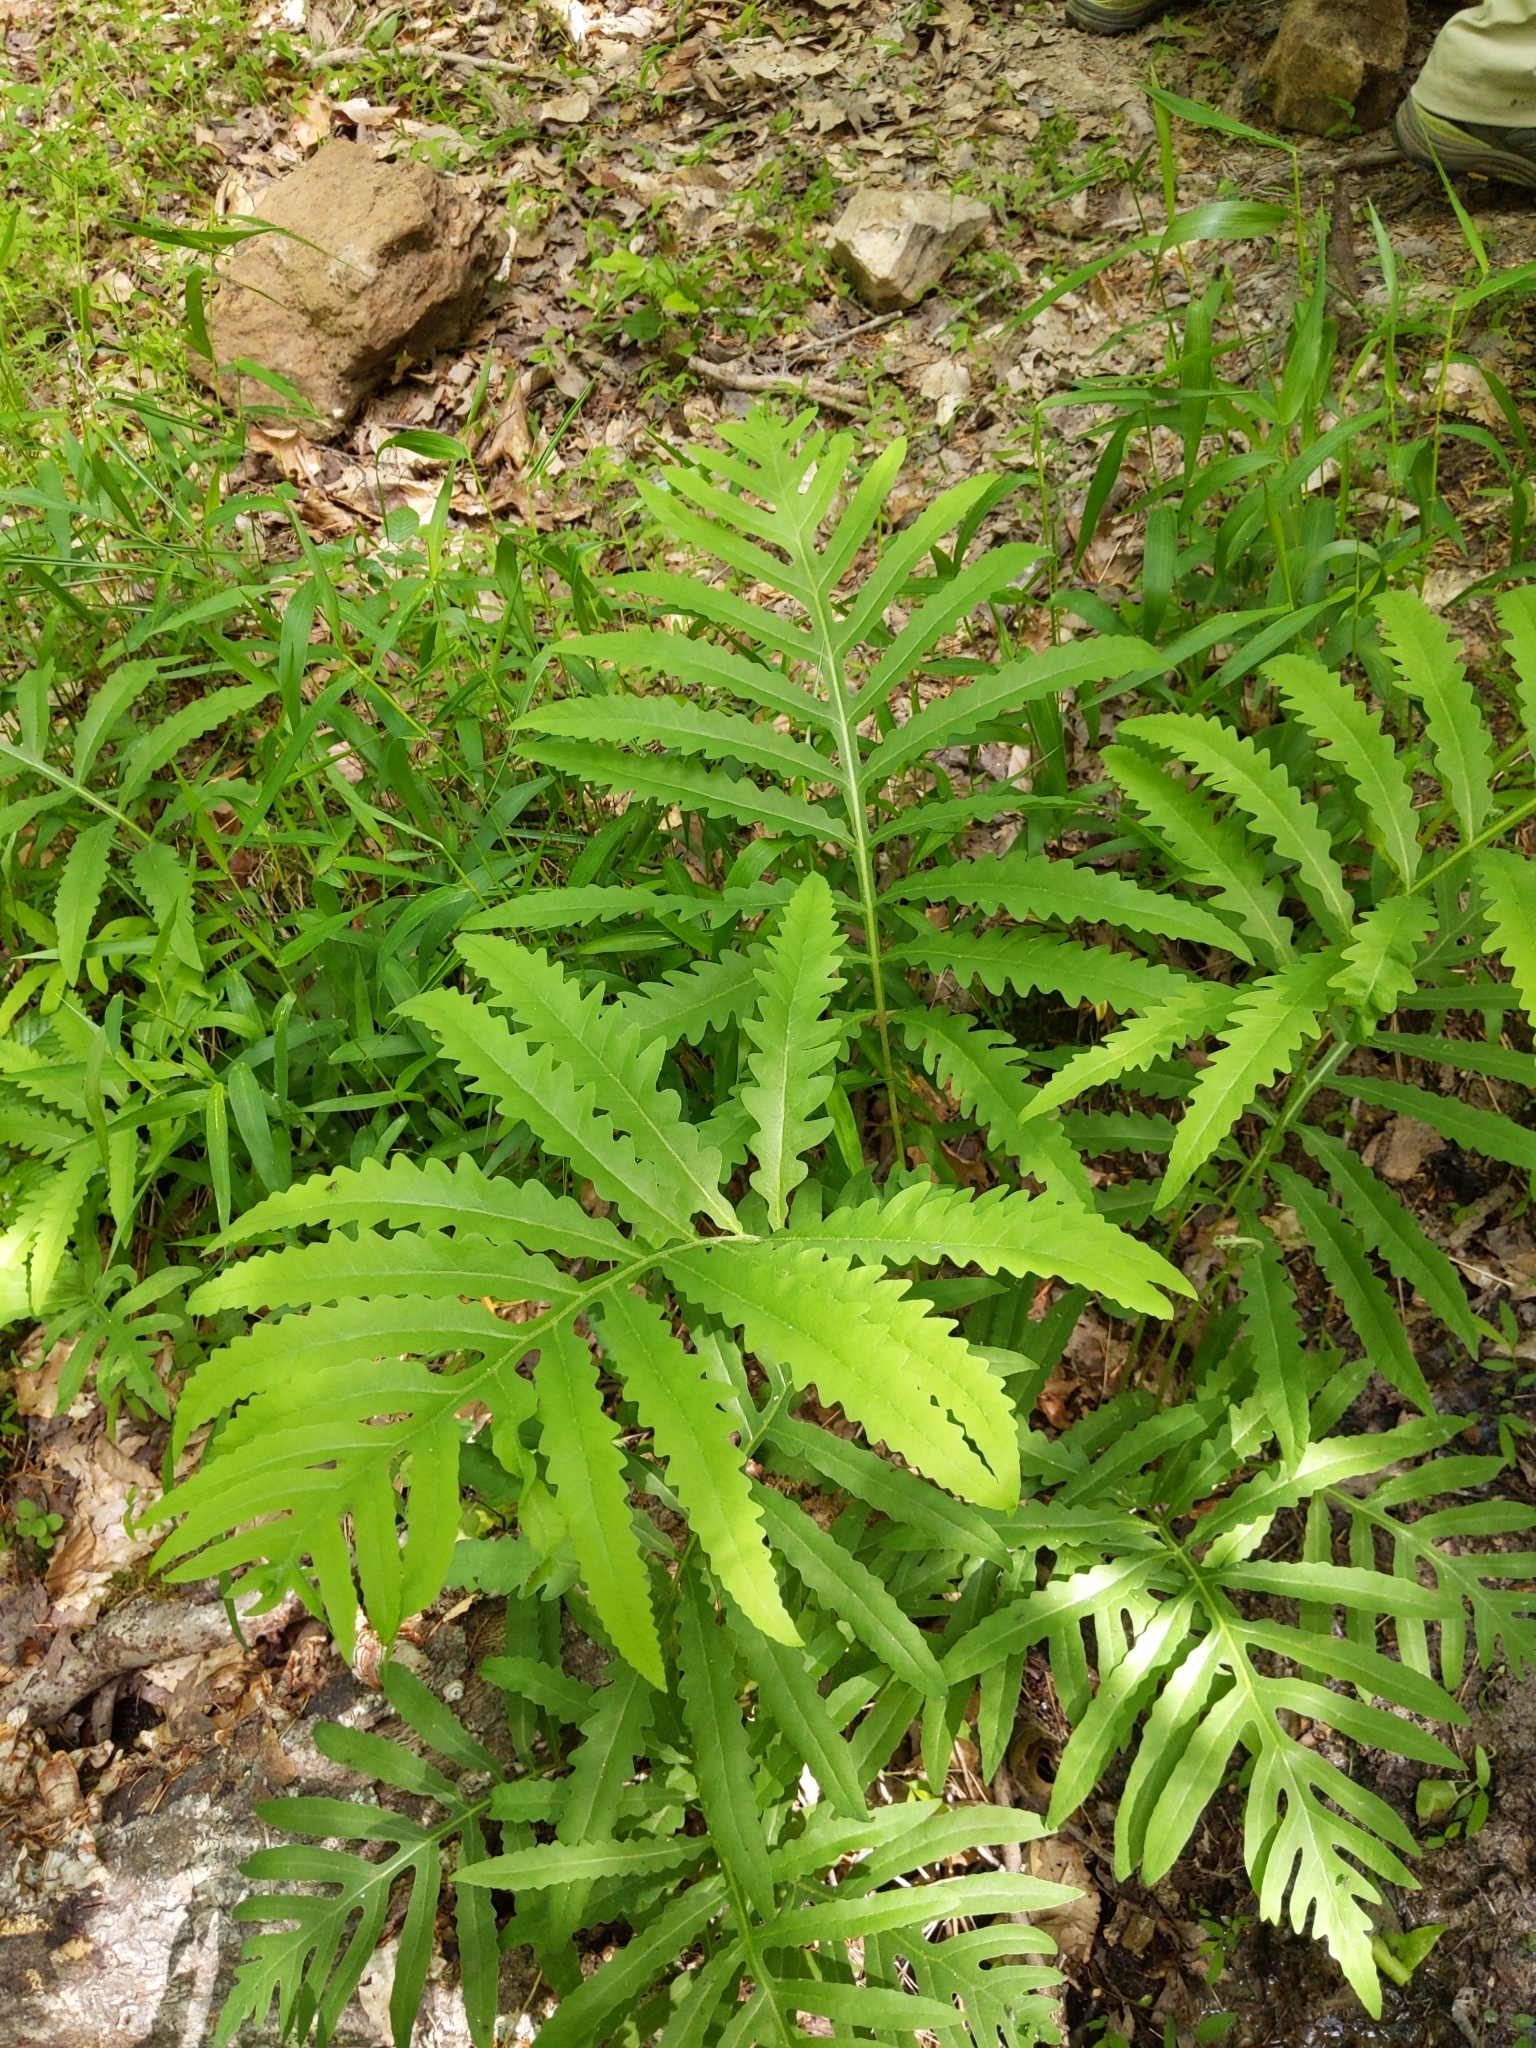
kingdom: Plantae
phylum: Tracheophyta
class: Polypodiopsida
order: Polypodiales
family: Onocleaceae
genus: Onoclea
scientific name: Onoclea sensibilis
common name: Sensitive fern
